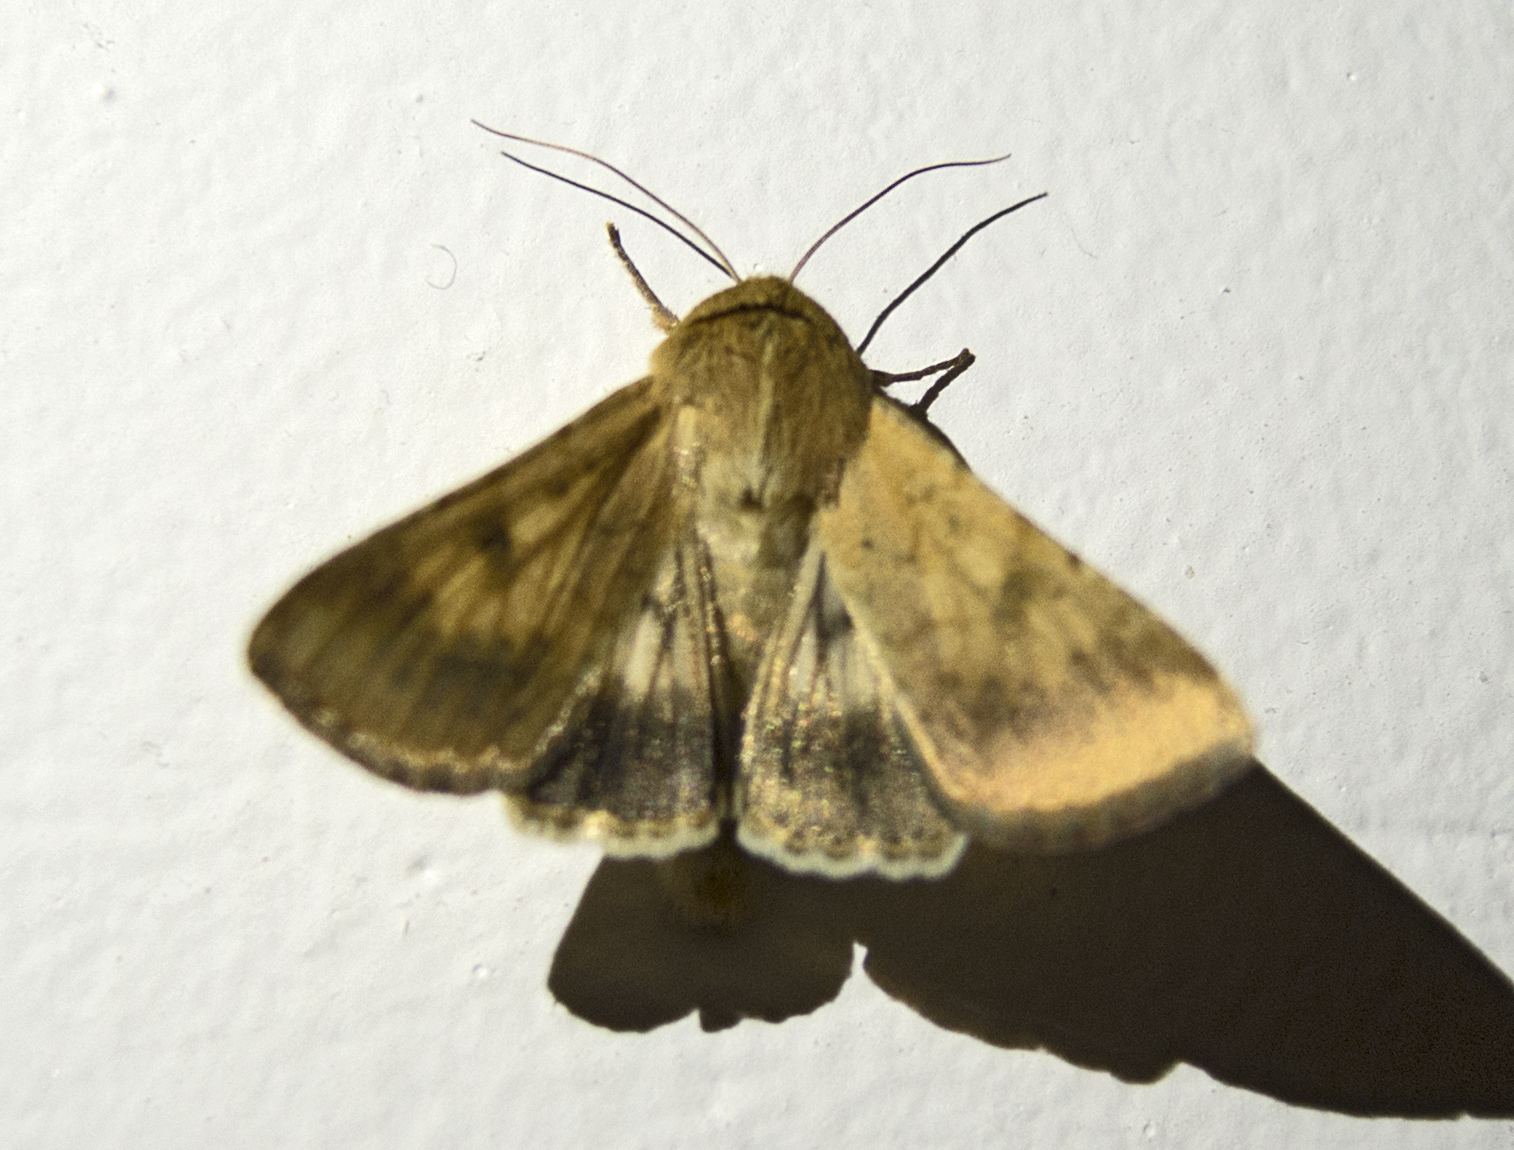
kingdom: Animalia
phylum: Arthropoda
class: Insecta
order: Lepidoptera
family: Noctuidae
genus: Helicoverpa
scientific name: Helicoverpa armigera
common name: Cotton bollworm
